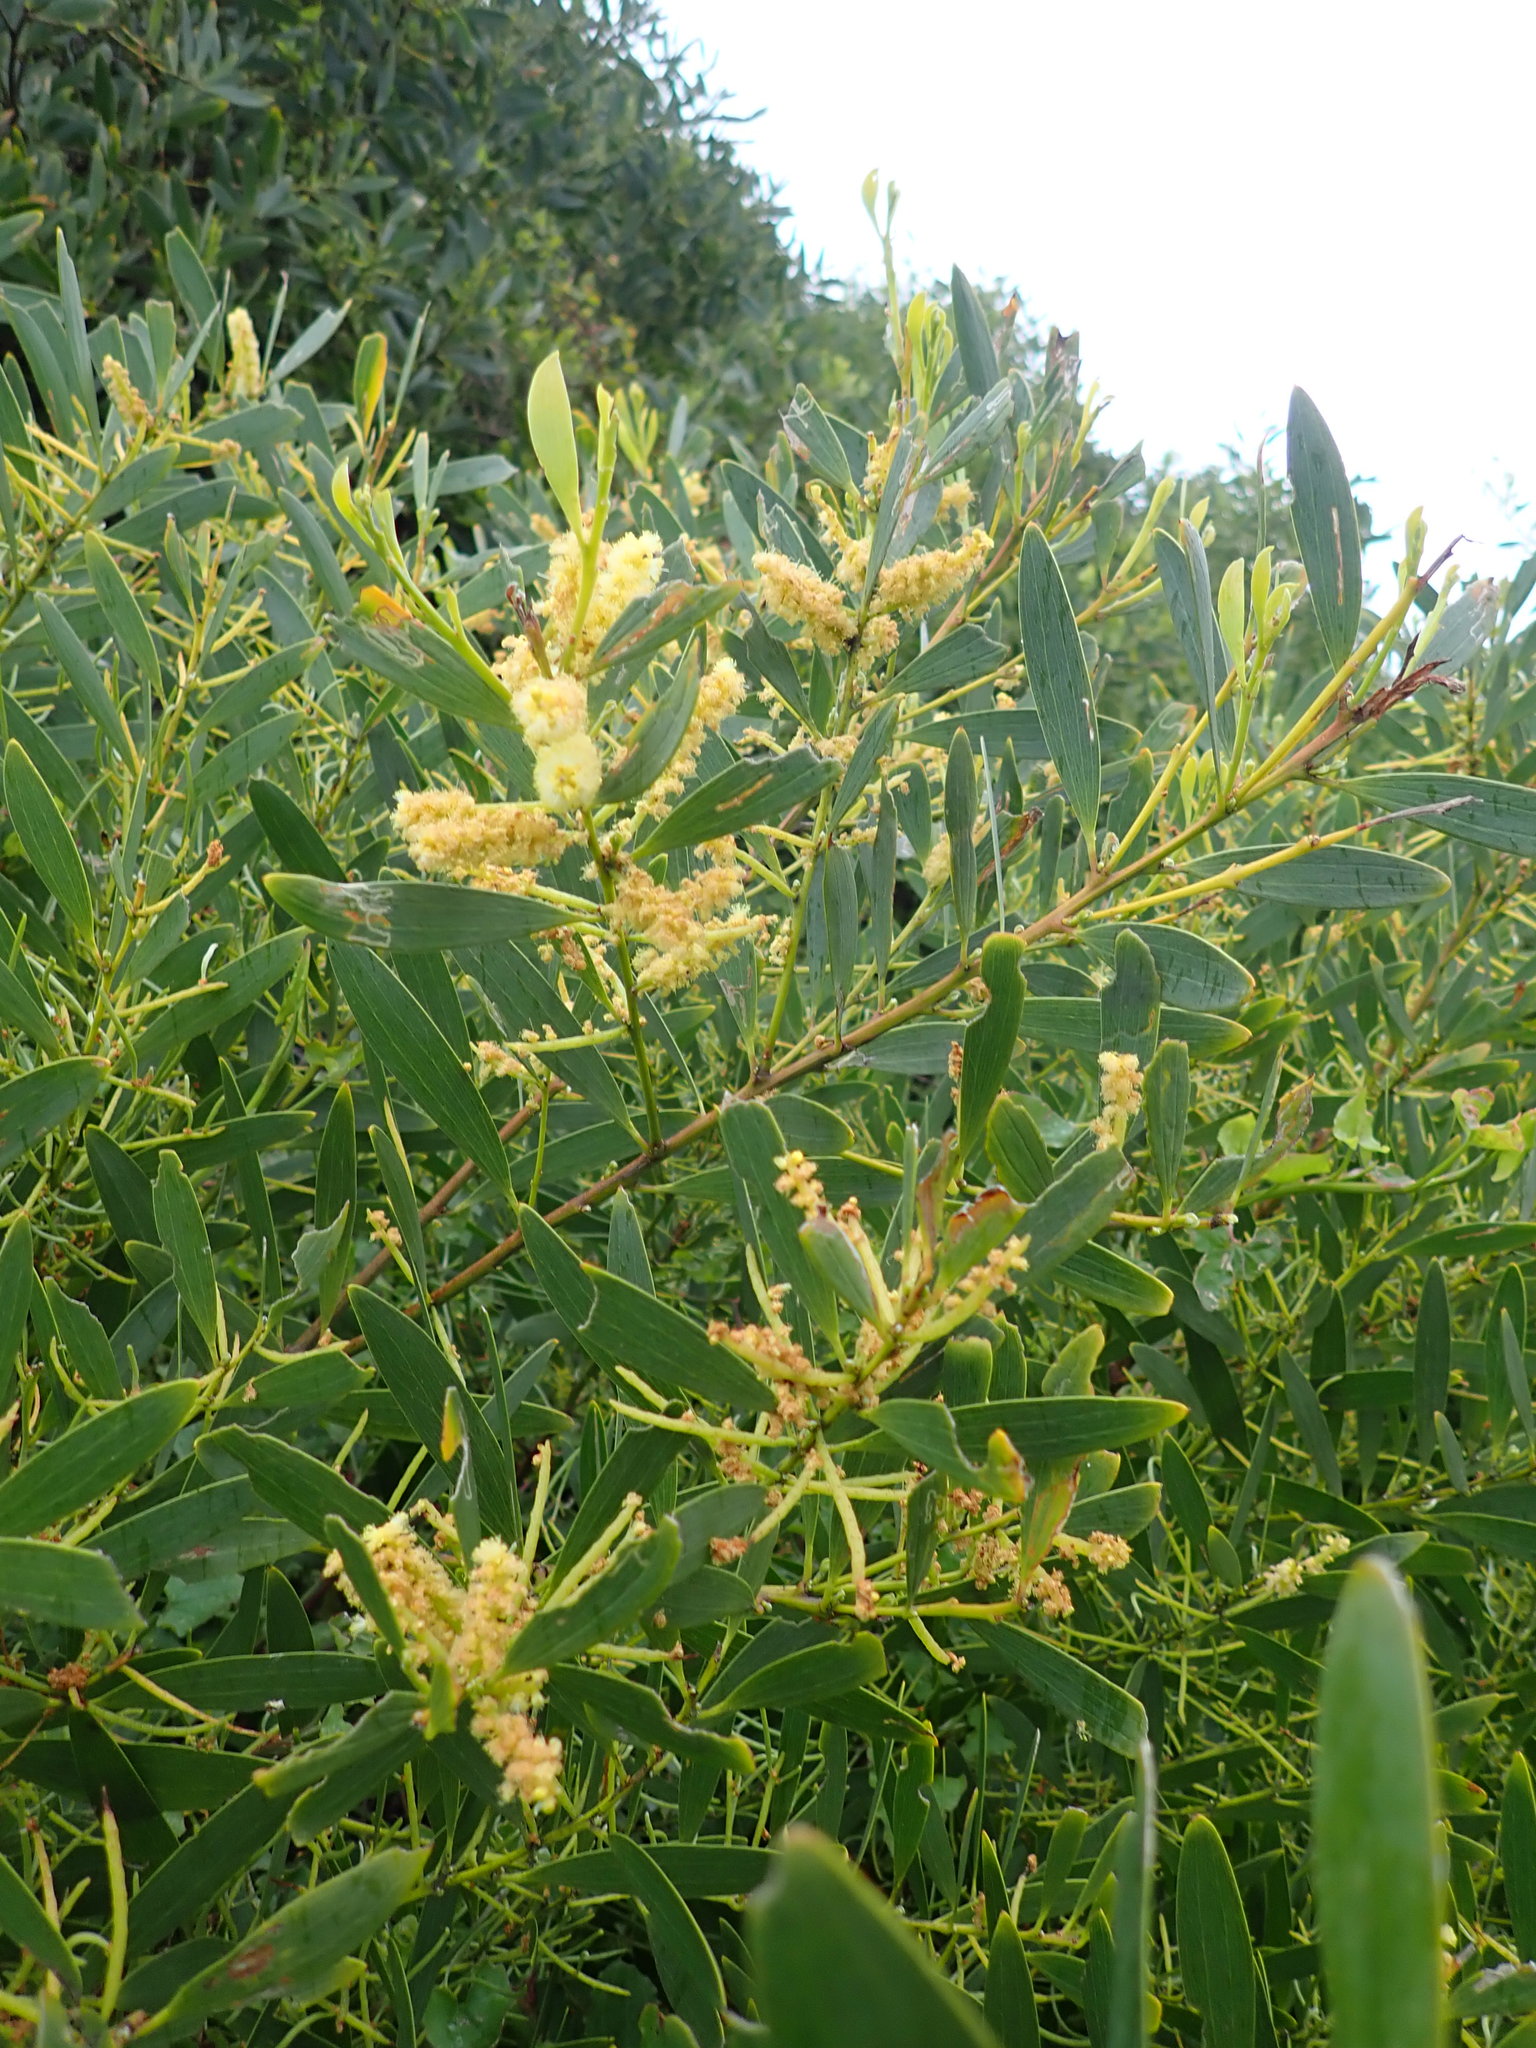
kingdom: Plantae
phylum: Tracheophyta
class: Magnoliopsida
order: Fabales
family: Fabaceae
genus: Acacia
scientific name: Acacia longifolia
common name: Sydney golden wattle
